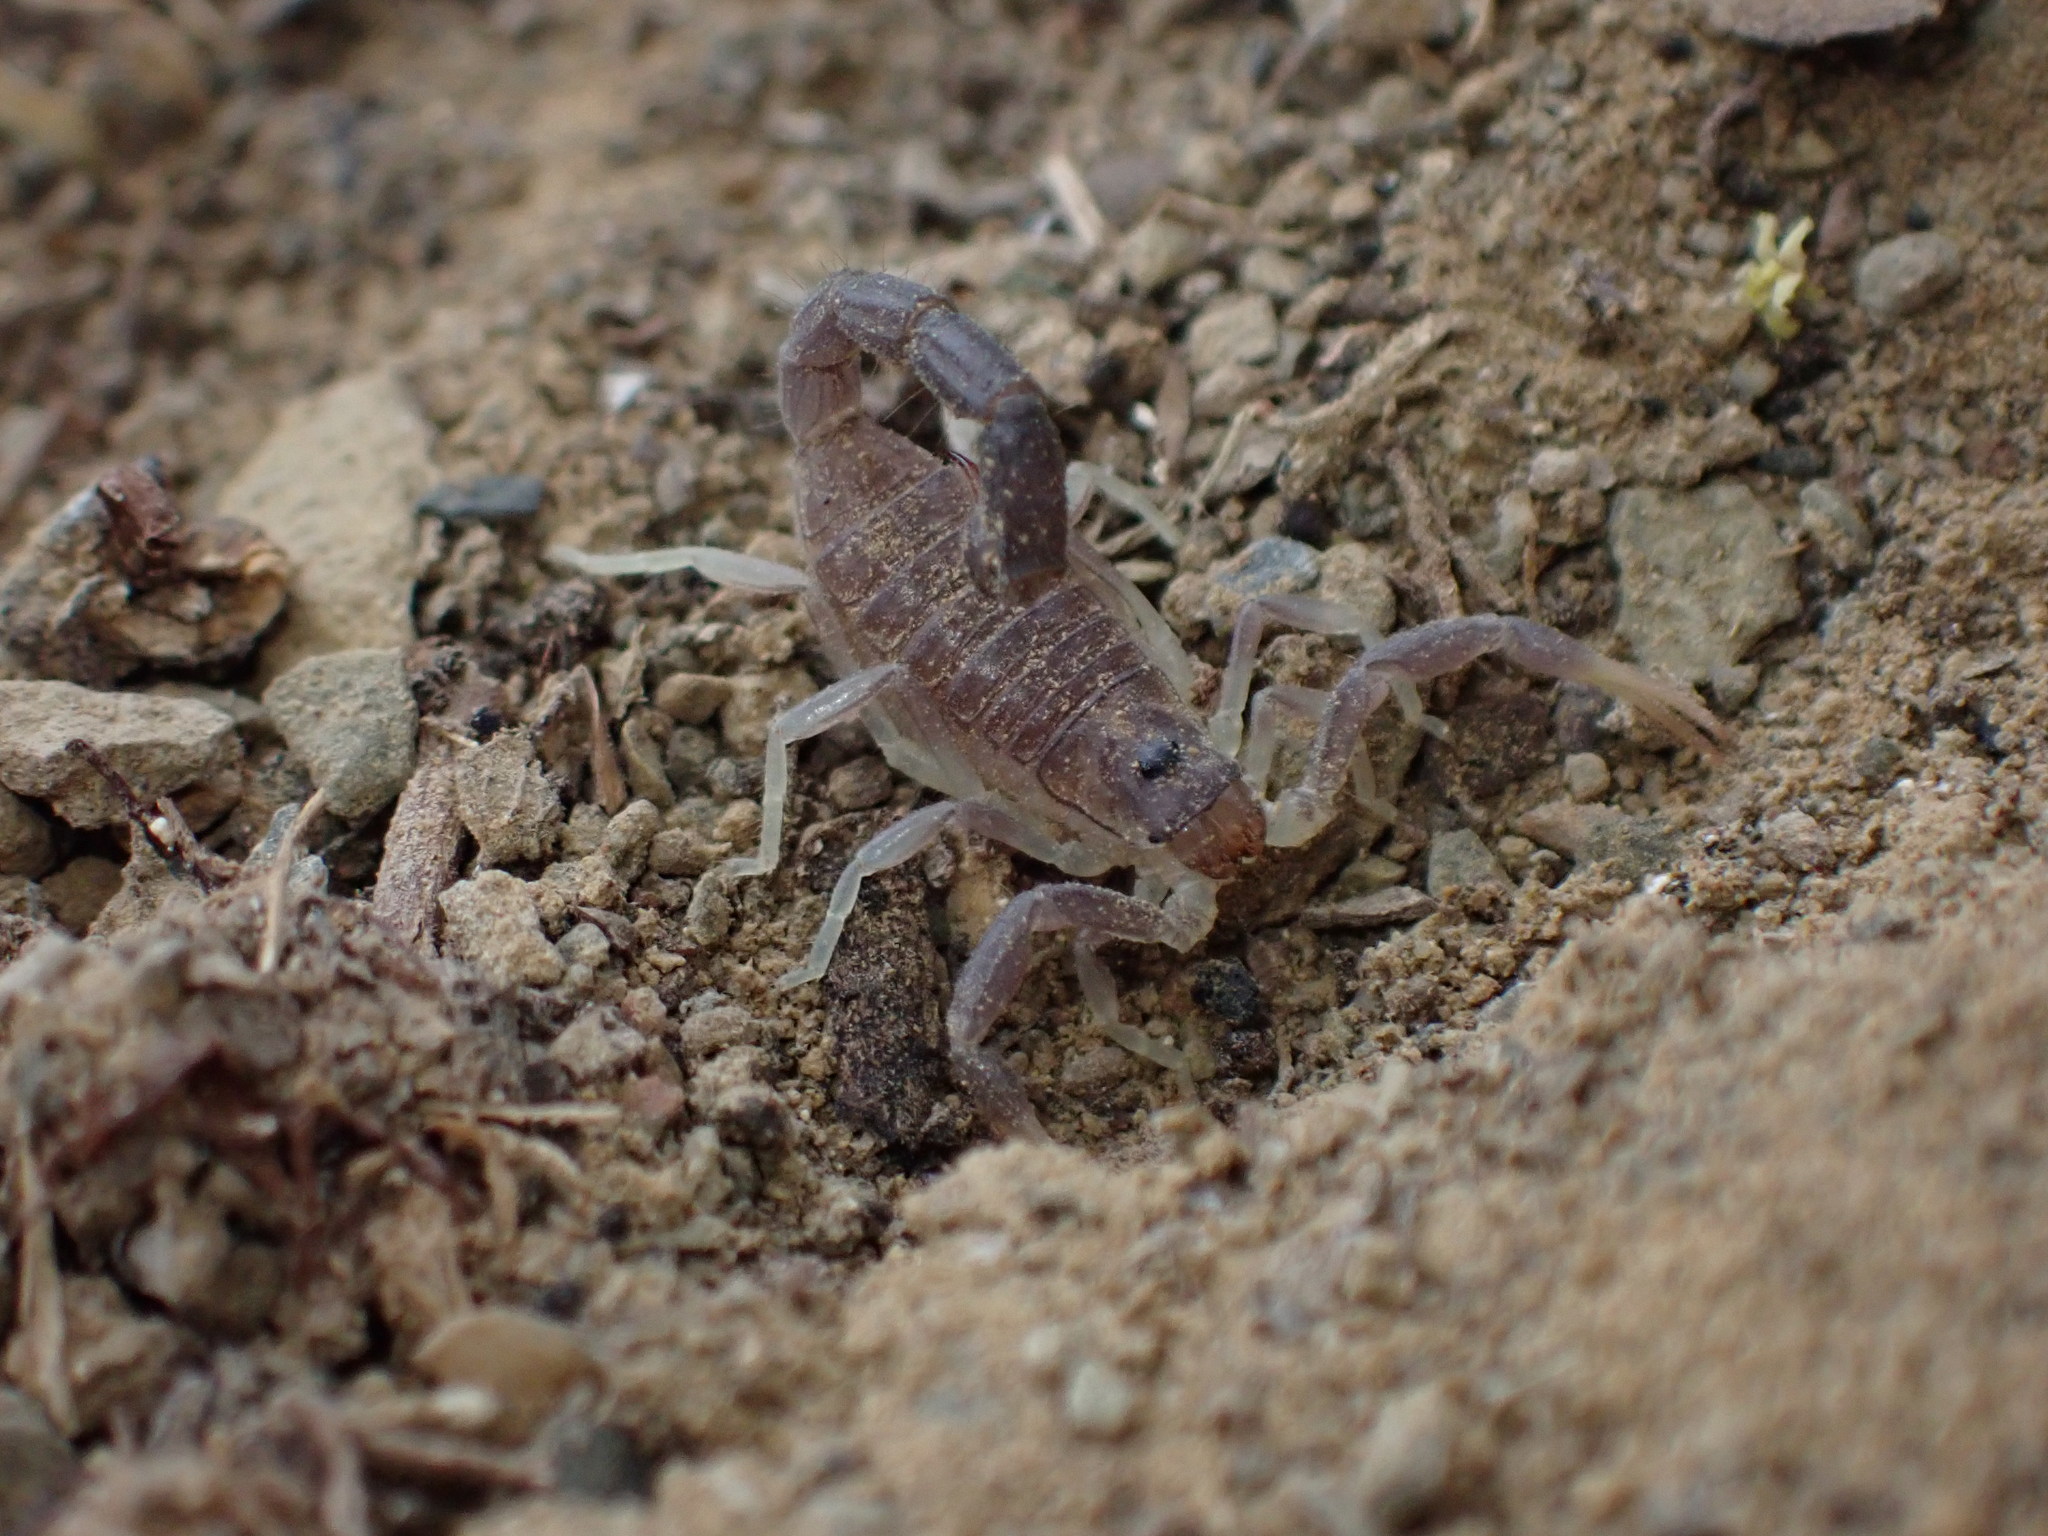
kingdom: Animalia
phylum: Arthropoda
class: Arachnida
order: Scorpiones
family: Buthidae
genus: Parabuthus
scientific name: Parabuthus schlechteri
